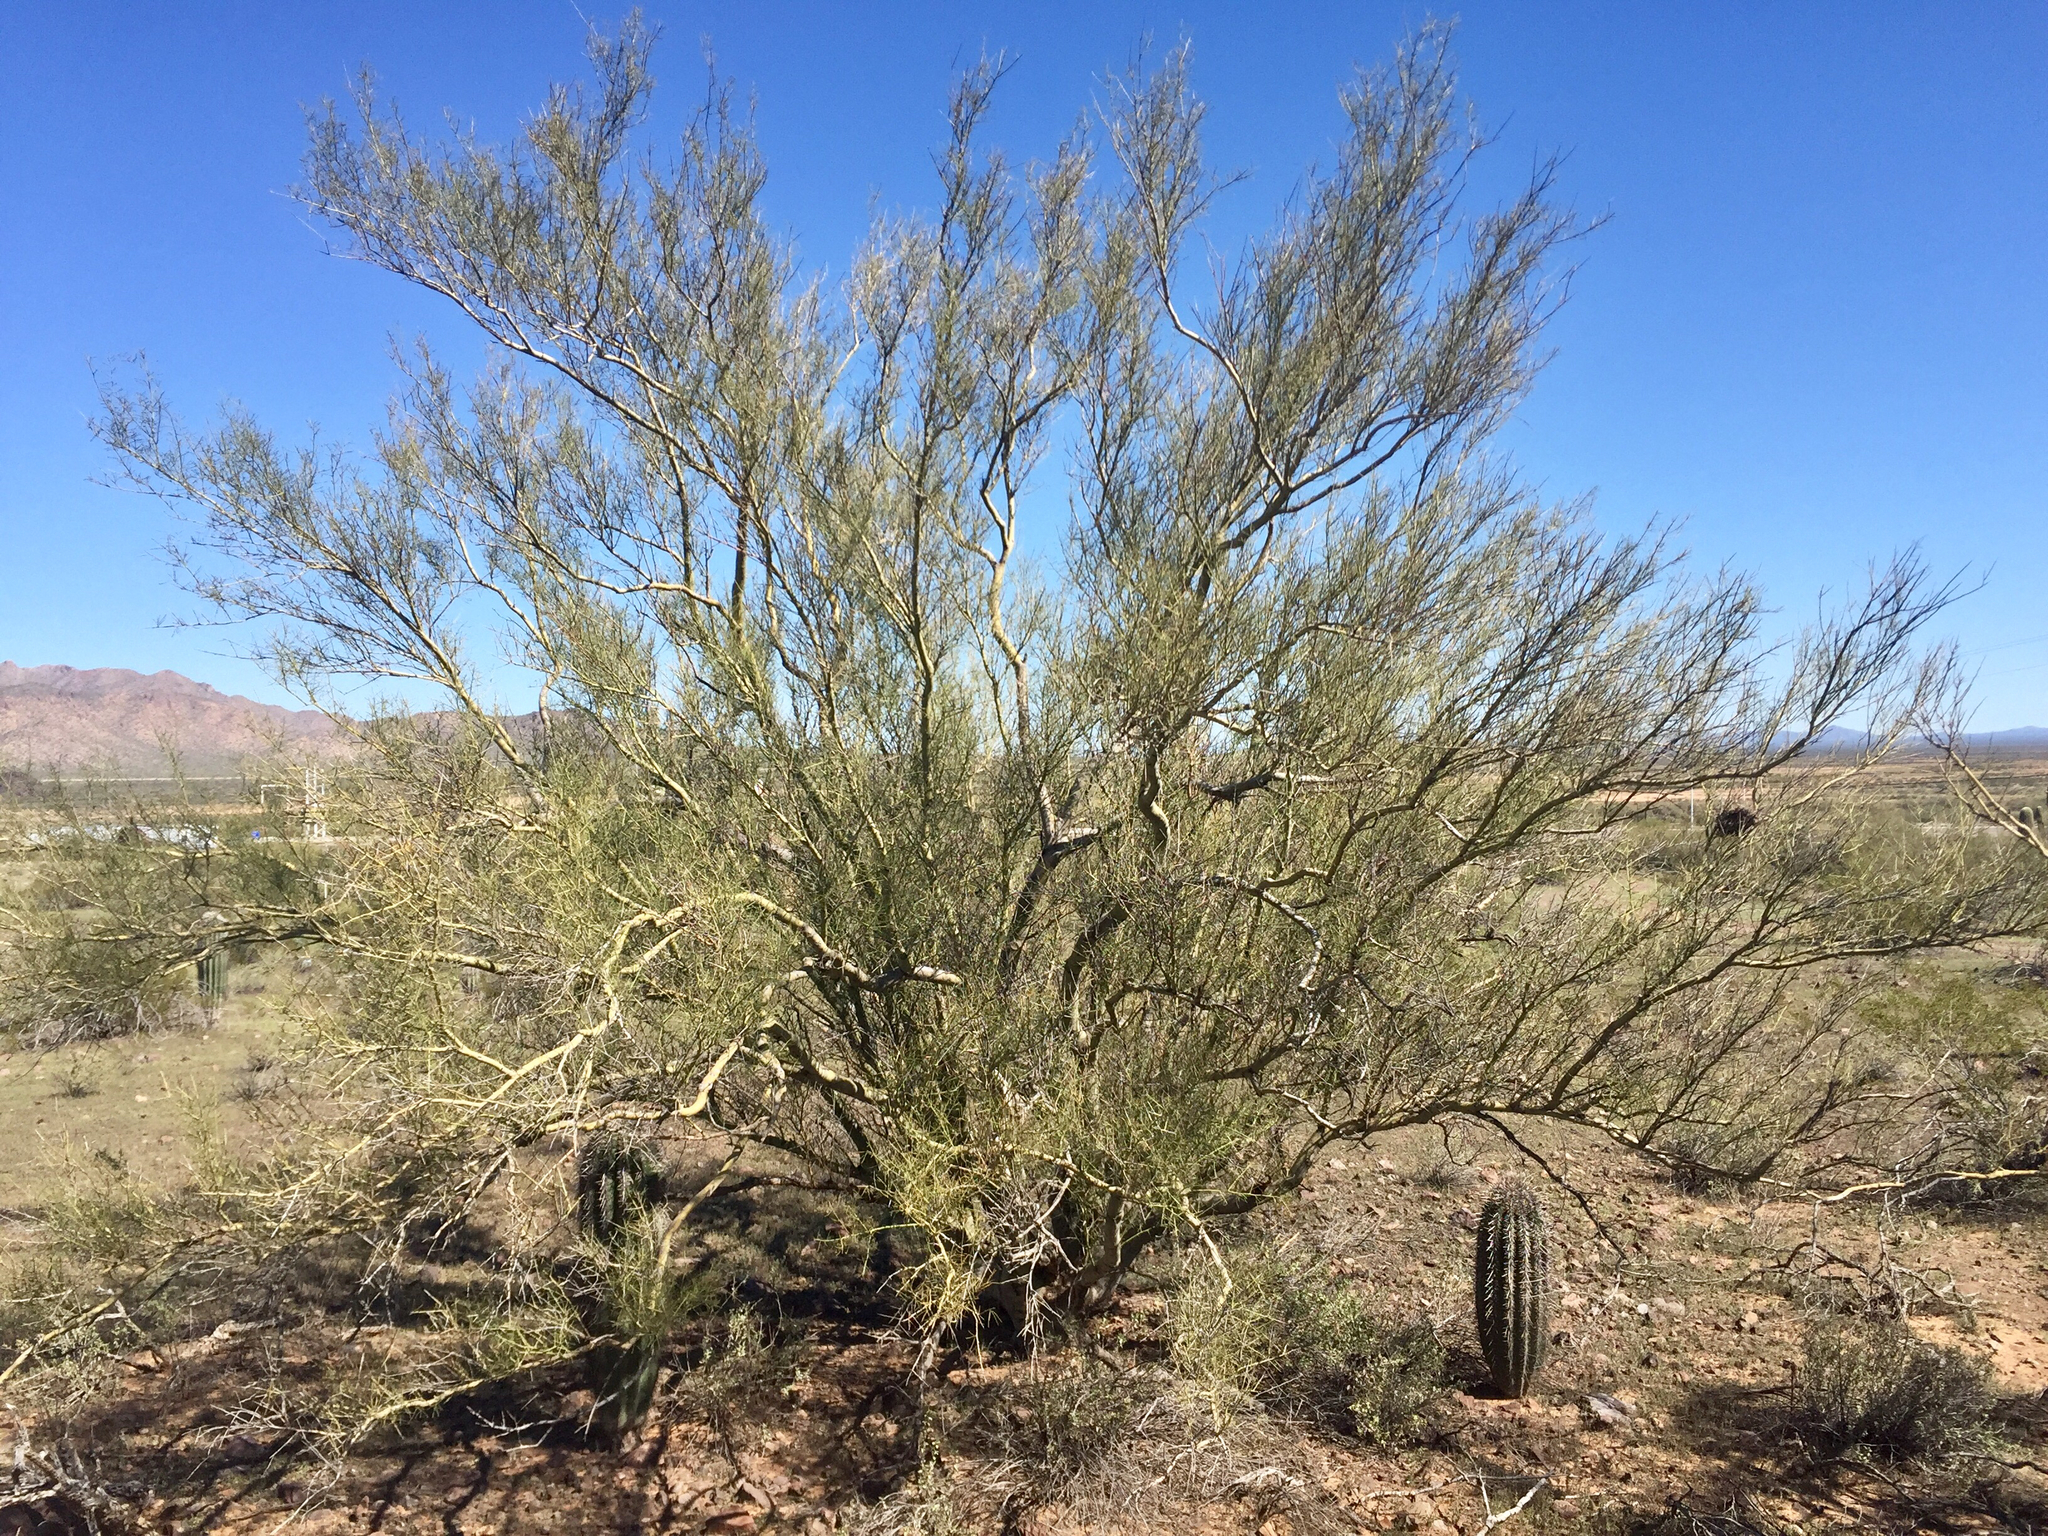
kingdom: Plantae
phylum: Tracheophyta
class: Magnoliopsida
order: Fabales
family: Fabaceae
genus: Parkinsonia
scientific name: Parkinsonia microphylla
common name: Yellow paloverde
